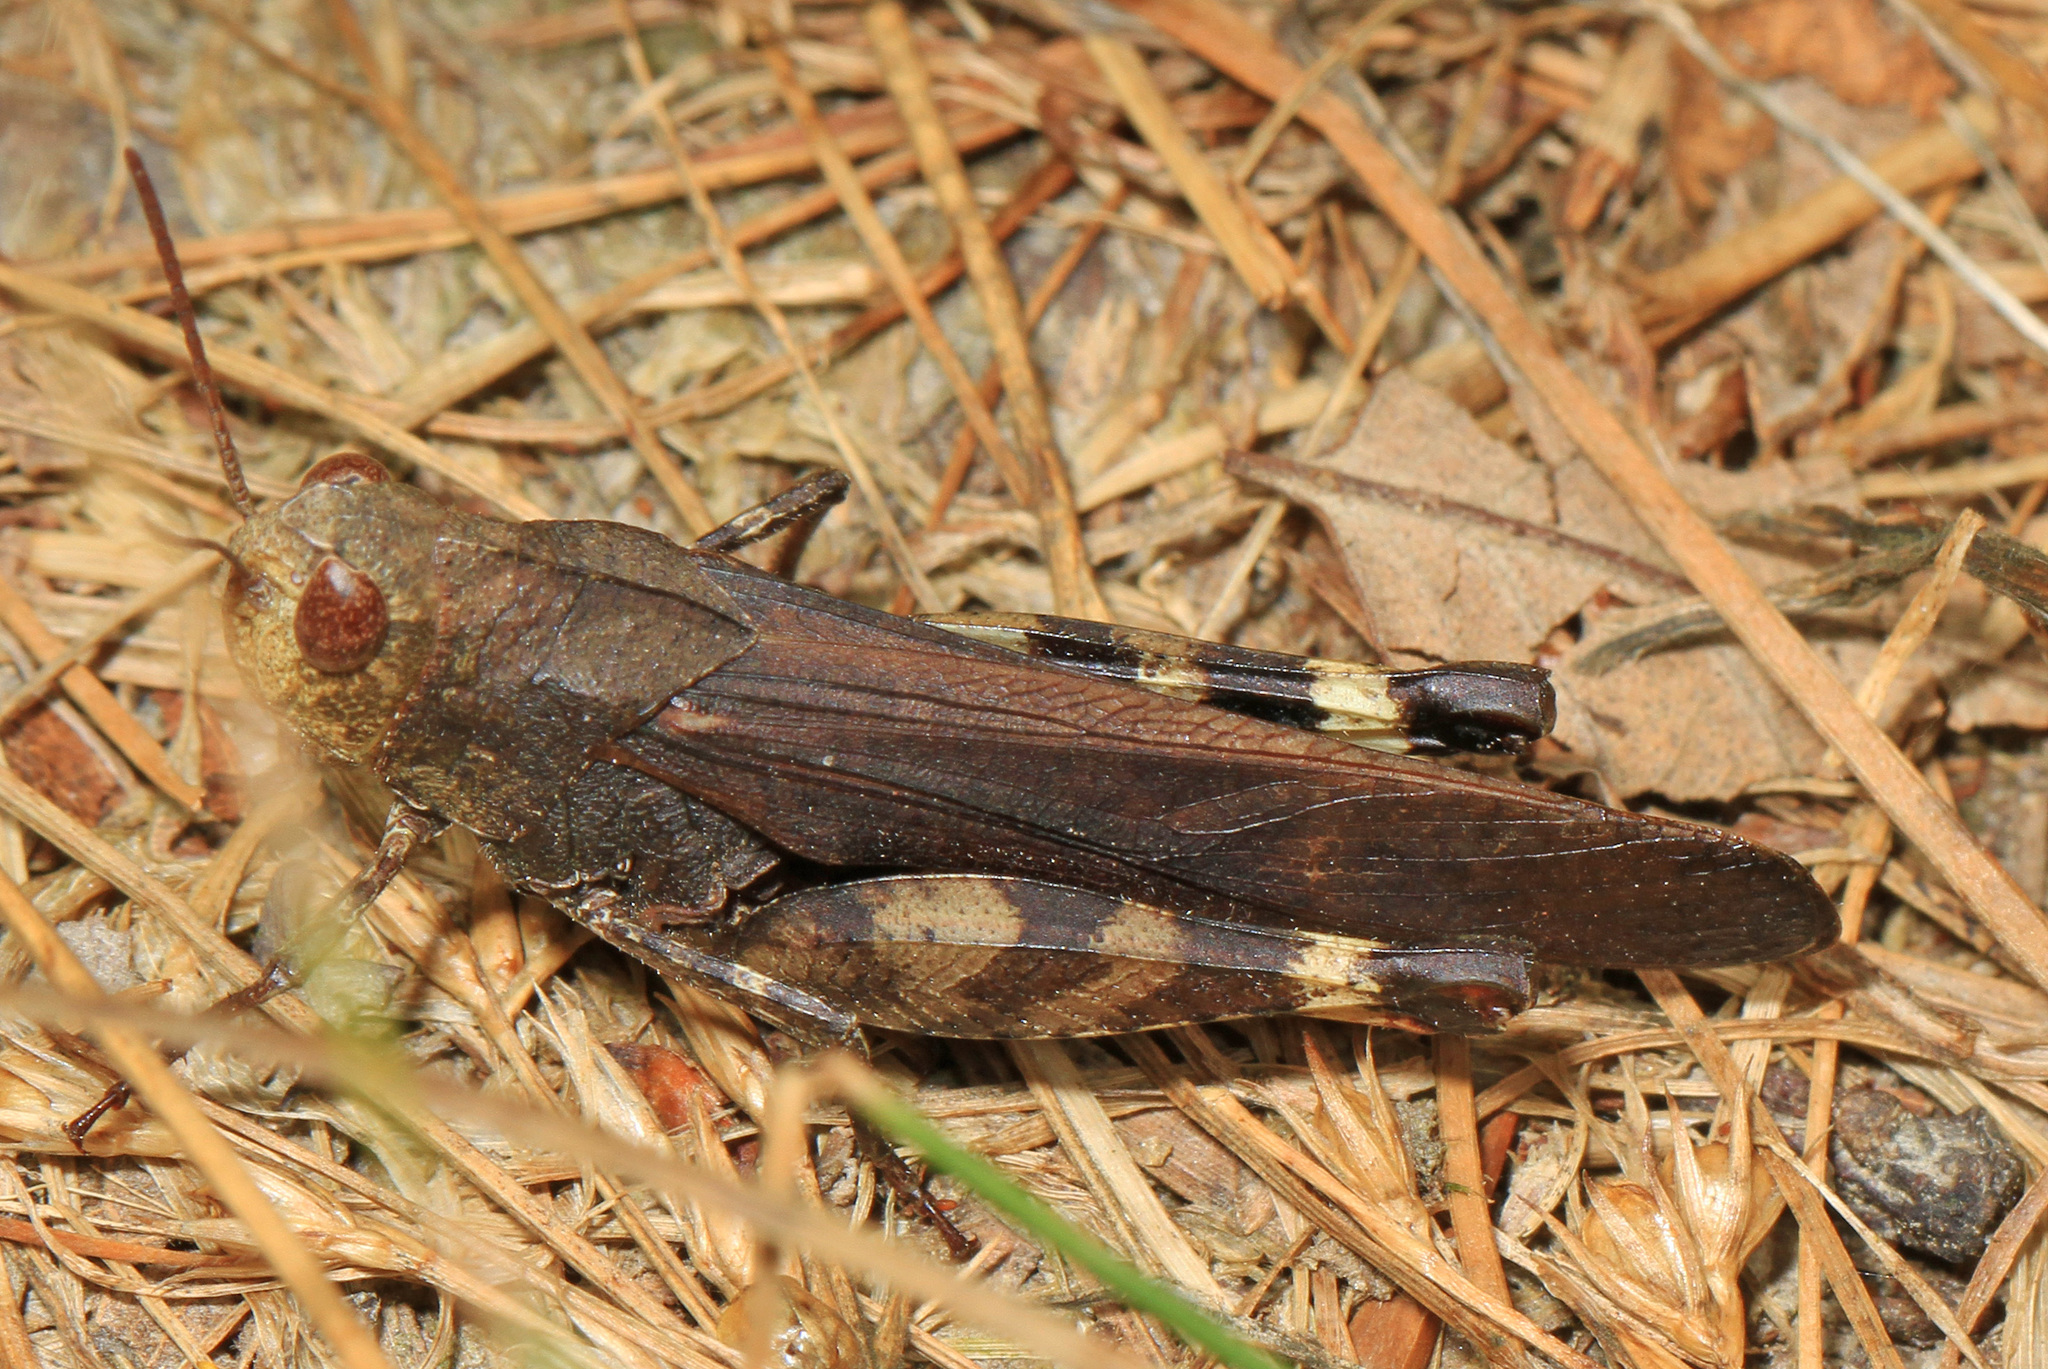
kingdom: Animalia
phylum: Arthropoda
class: Insecta
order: Orthoptera
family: Acrididae
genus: Arphia
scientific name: Arphia sulphurea
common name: Spring yellow-winged locust
